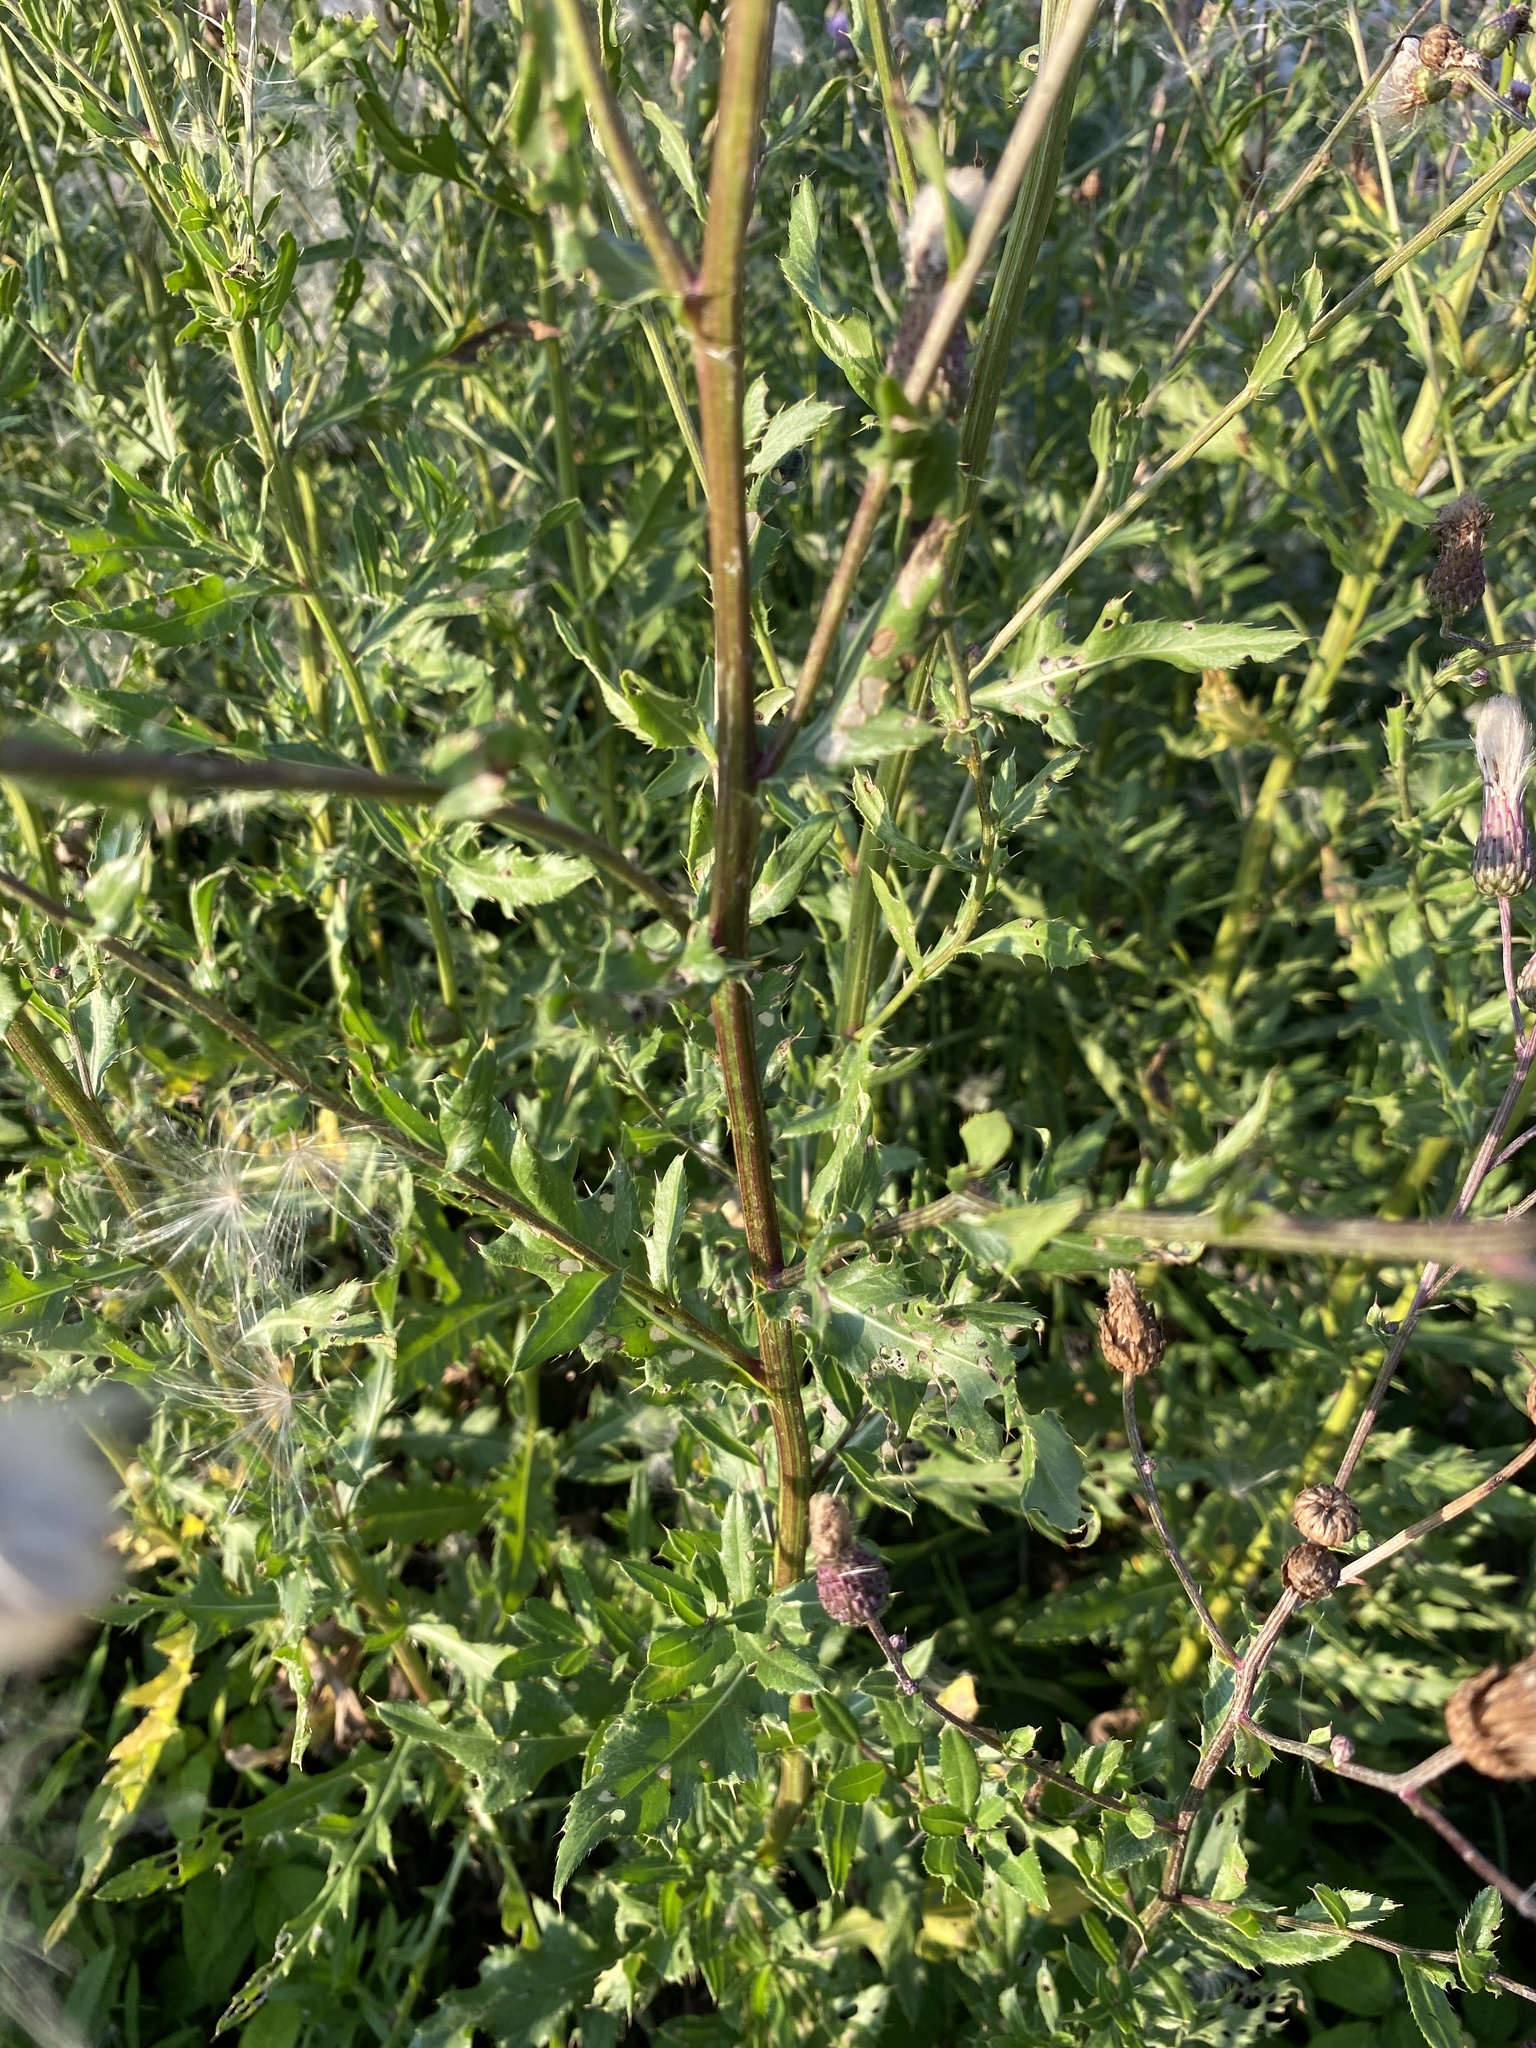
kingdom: Plantae
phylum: Tracheophyta
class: Magnoliopsida
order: Asterales
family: Asteraceae
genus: Cirsium
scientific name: Cirsium arvense
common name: Creeping thistle
